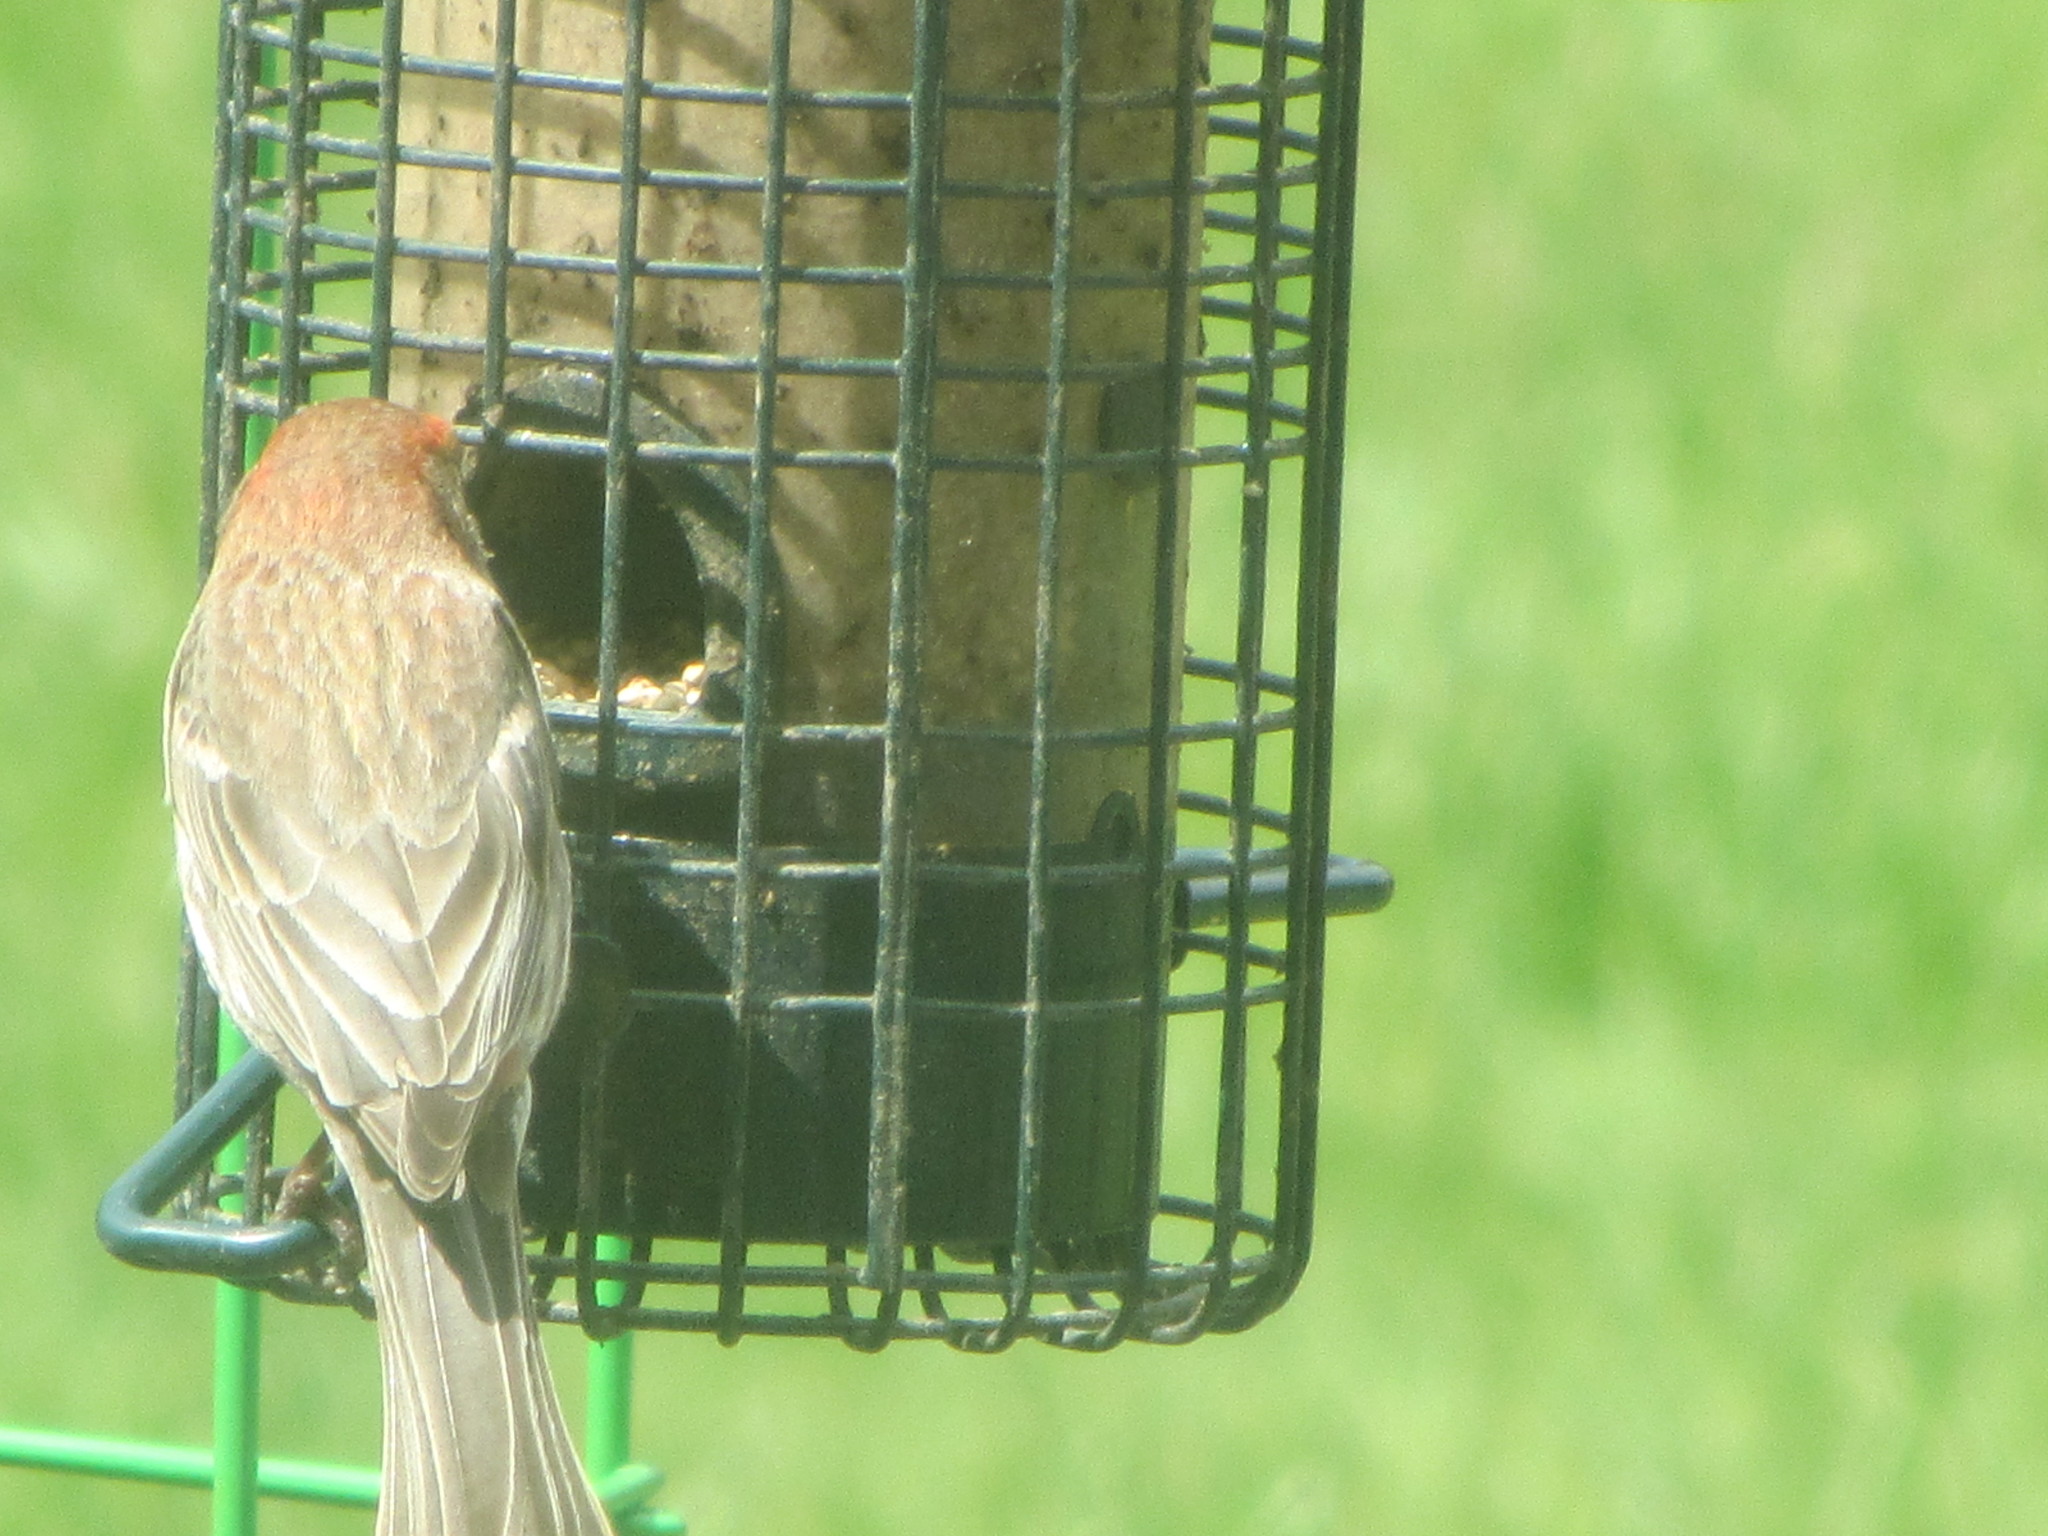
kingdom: Animalia
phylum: Chordata
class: Aves
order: Passeriformes
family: Fringillidae
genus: Haemorhous
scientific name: Haemorhous mexicanus
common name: House finch
